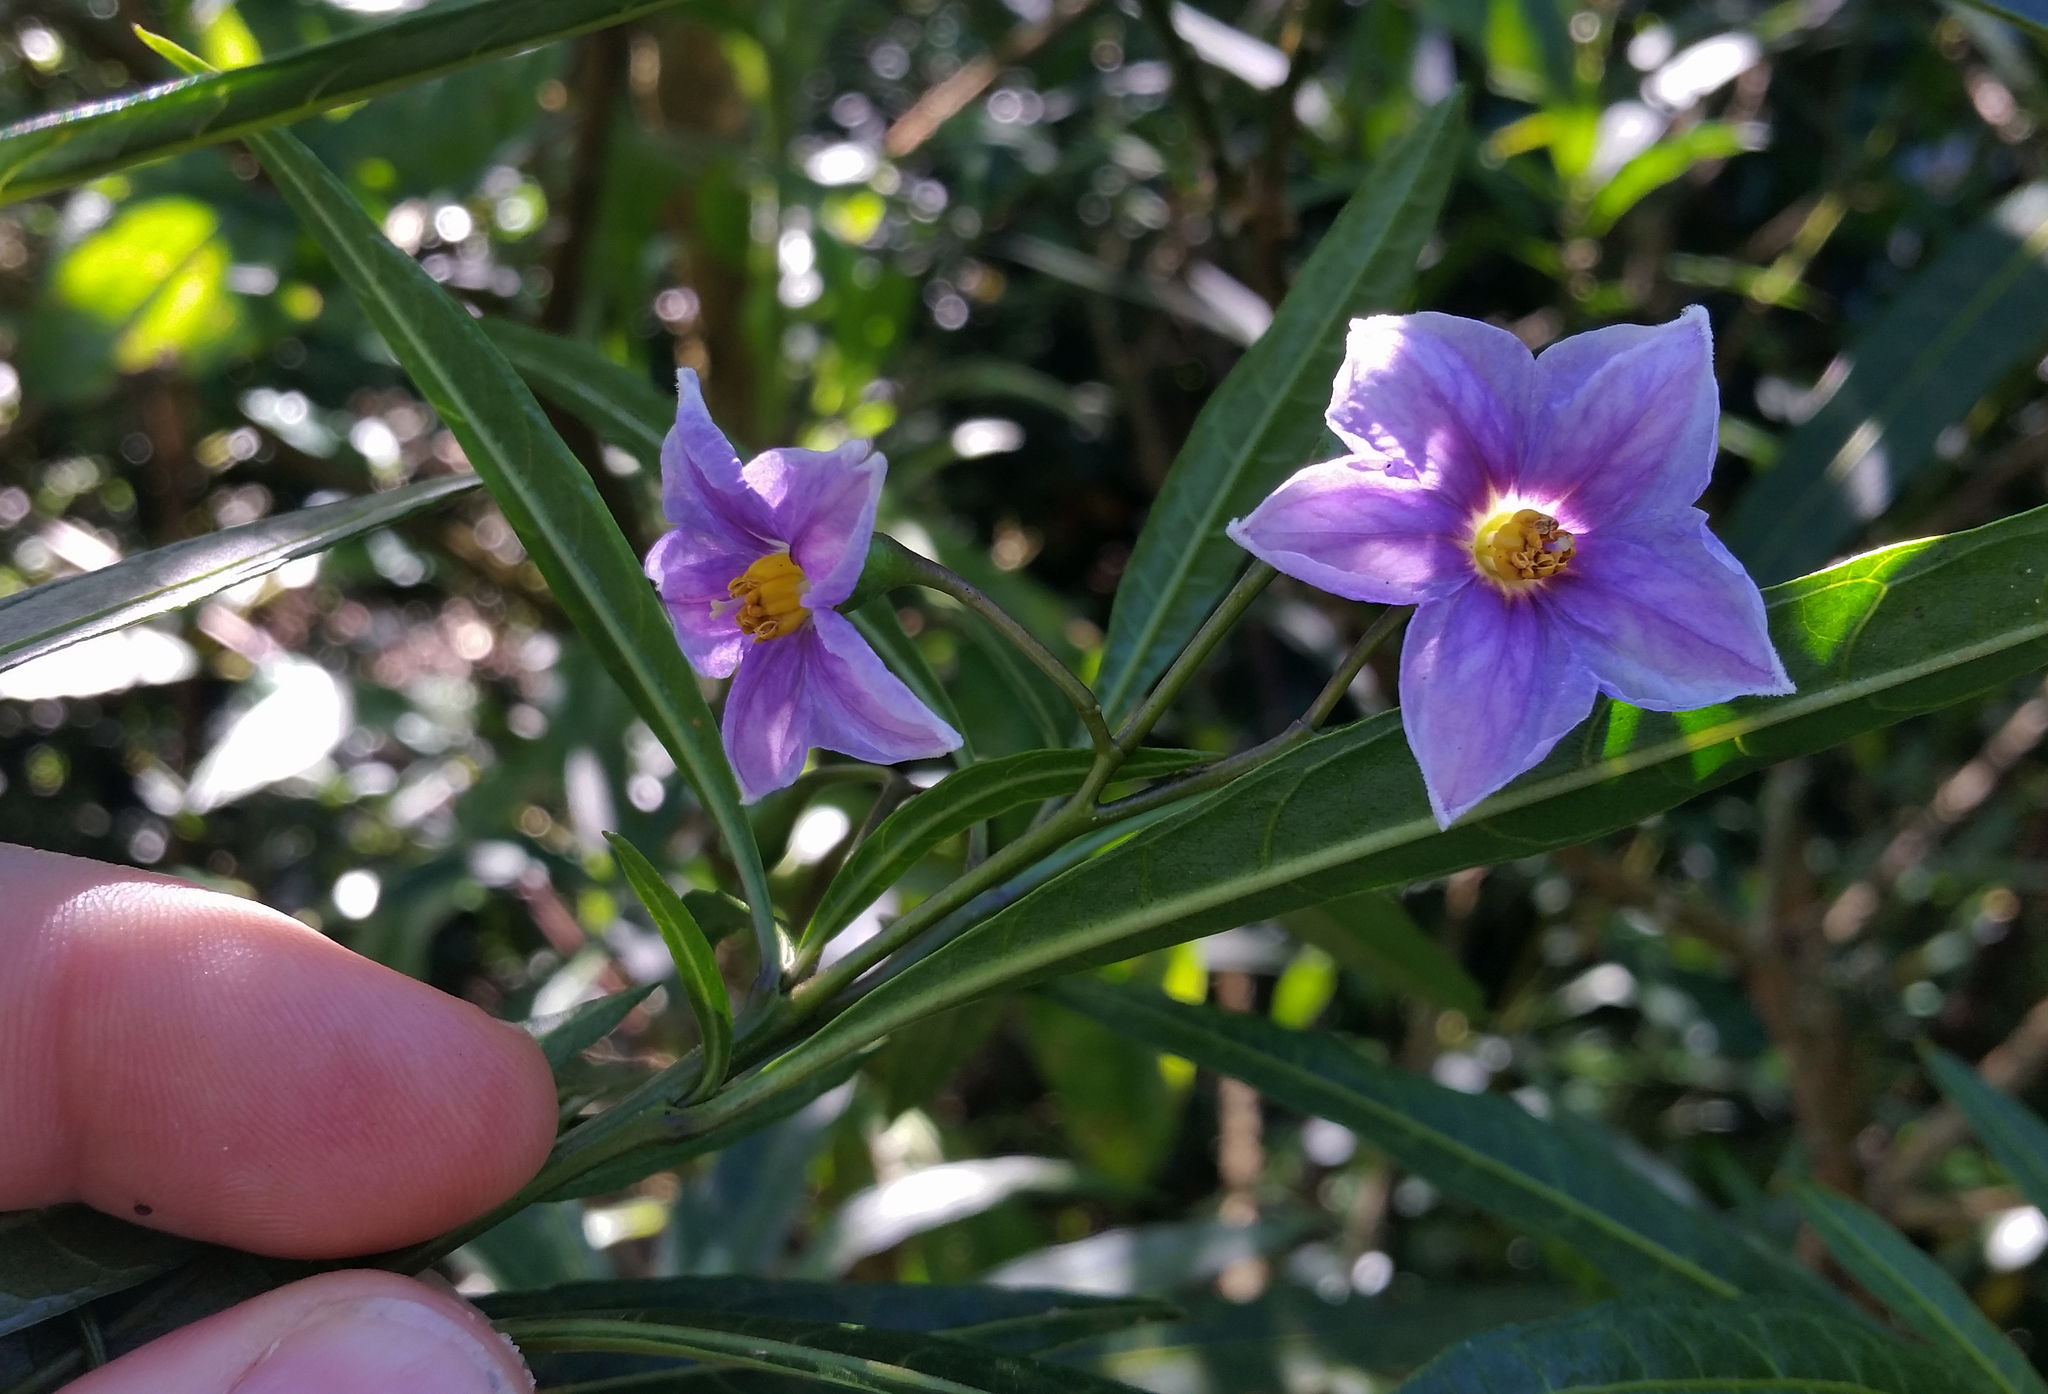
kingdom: Plantae
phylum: Tracheophyta
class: Magnoliopsida
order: Solanales
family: Solanaceae
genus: Solanum
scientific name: Solanum aviculare
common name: New zealand nightshade
